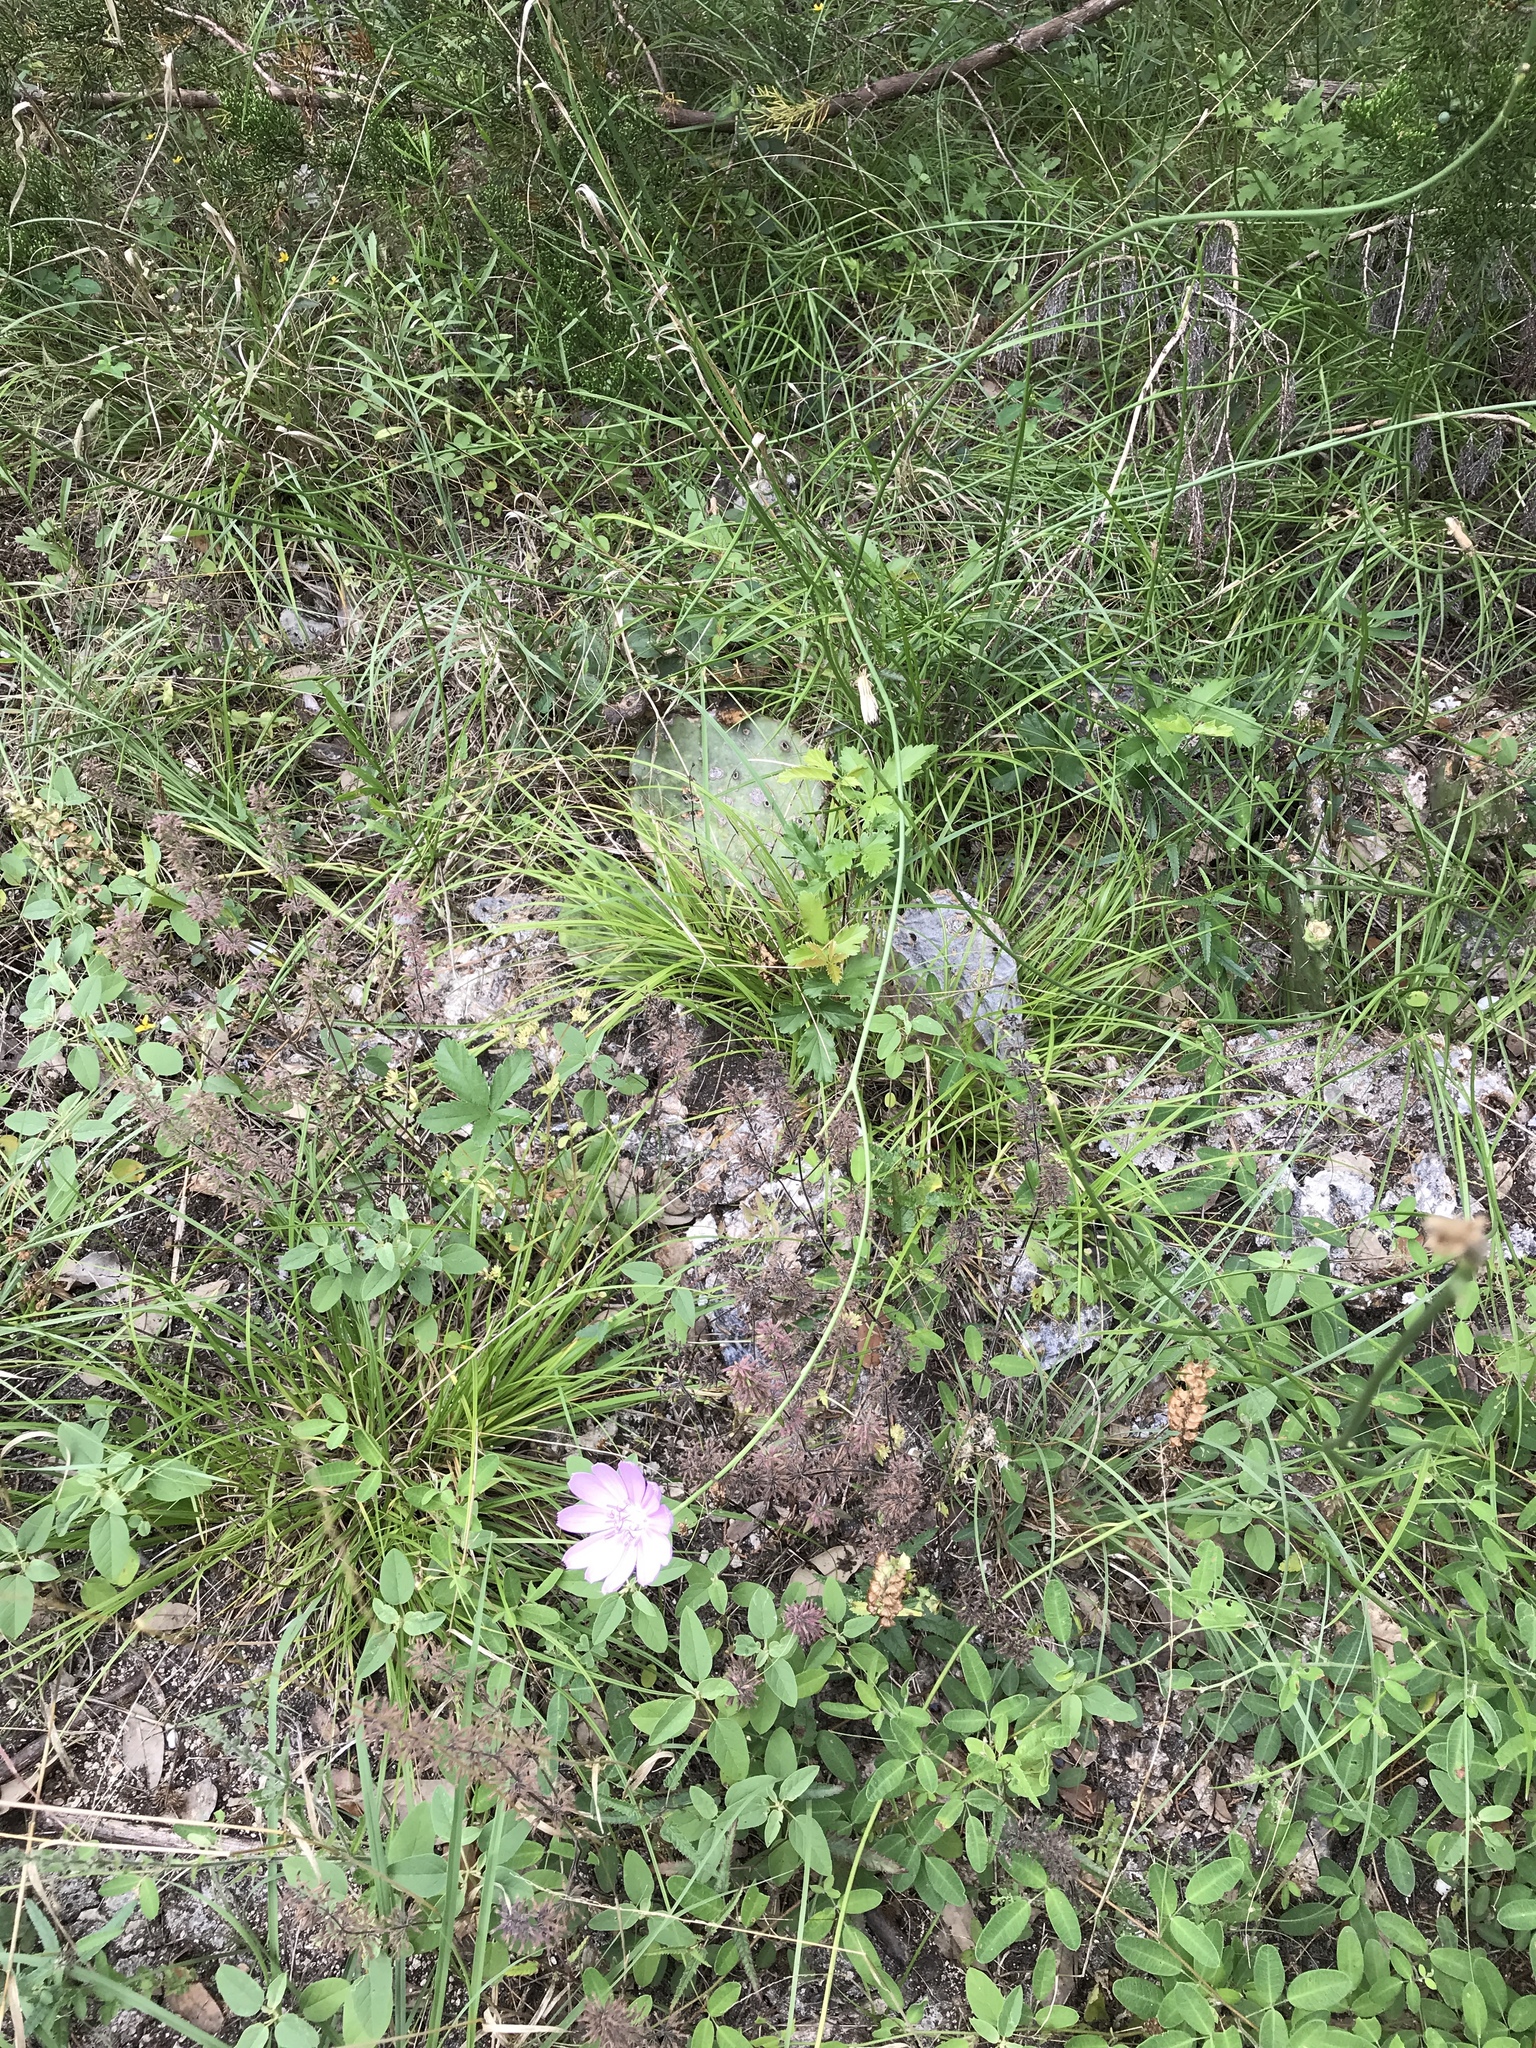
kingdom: Plantae
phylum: Tracheophyta
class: Magnoliopsida
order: Asterales
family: Asteraceae
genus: Lygodesmia
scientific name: Lygodesmia texana
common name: Texas skeleton-plant
